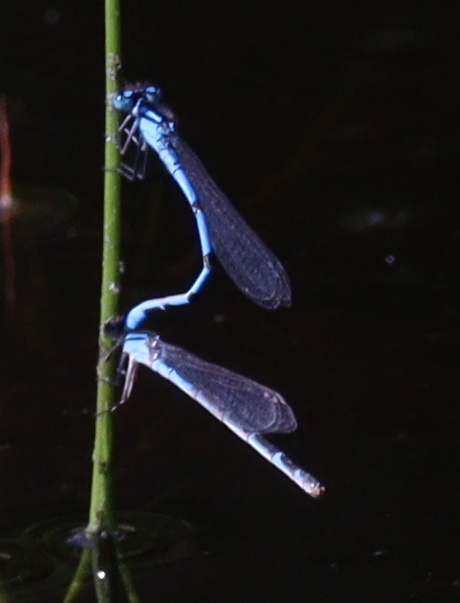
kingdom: Animalia
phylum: Arthropoda
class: Insecta
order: Odonata
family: Coenagrionidae
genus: Enallagma
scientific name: Enallagma cyathigerum
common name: Common blue damselfly
